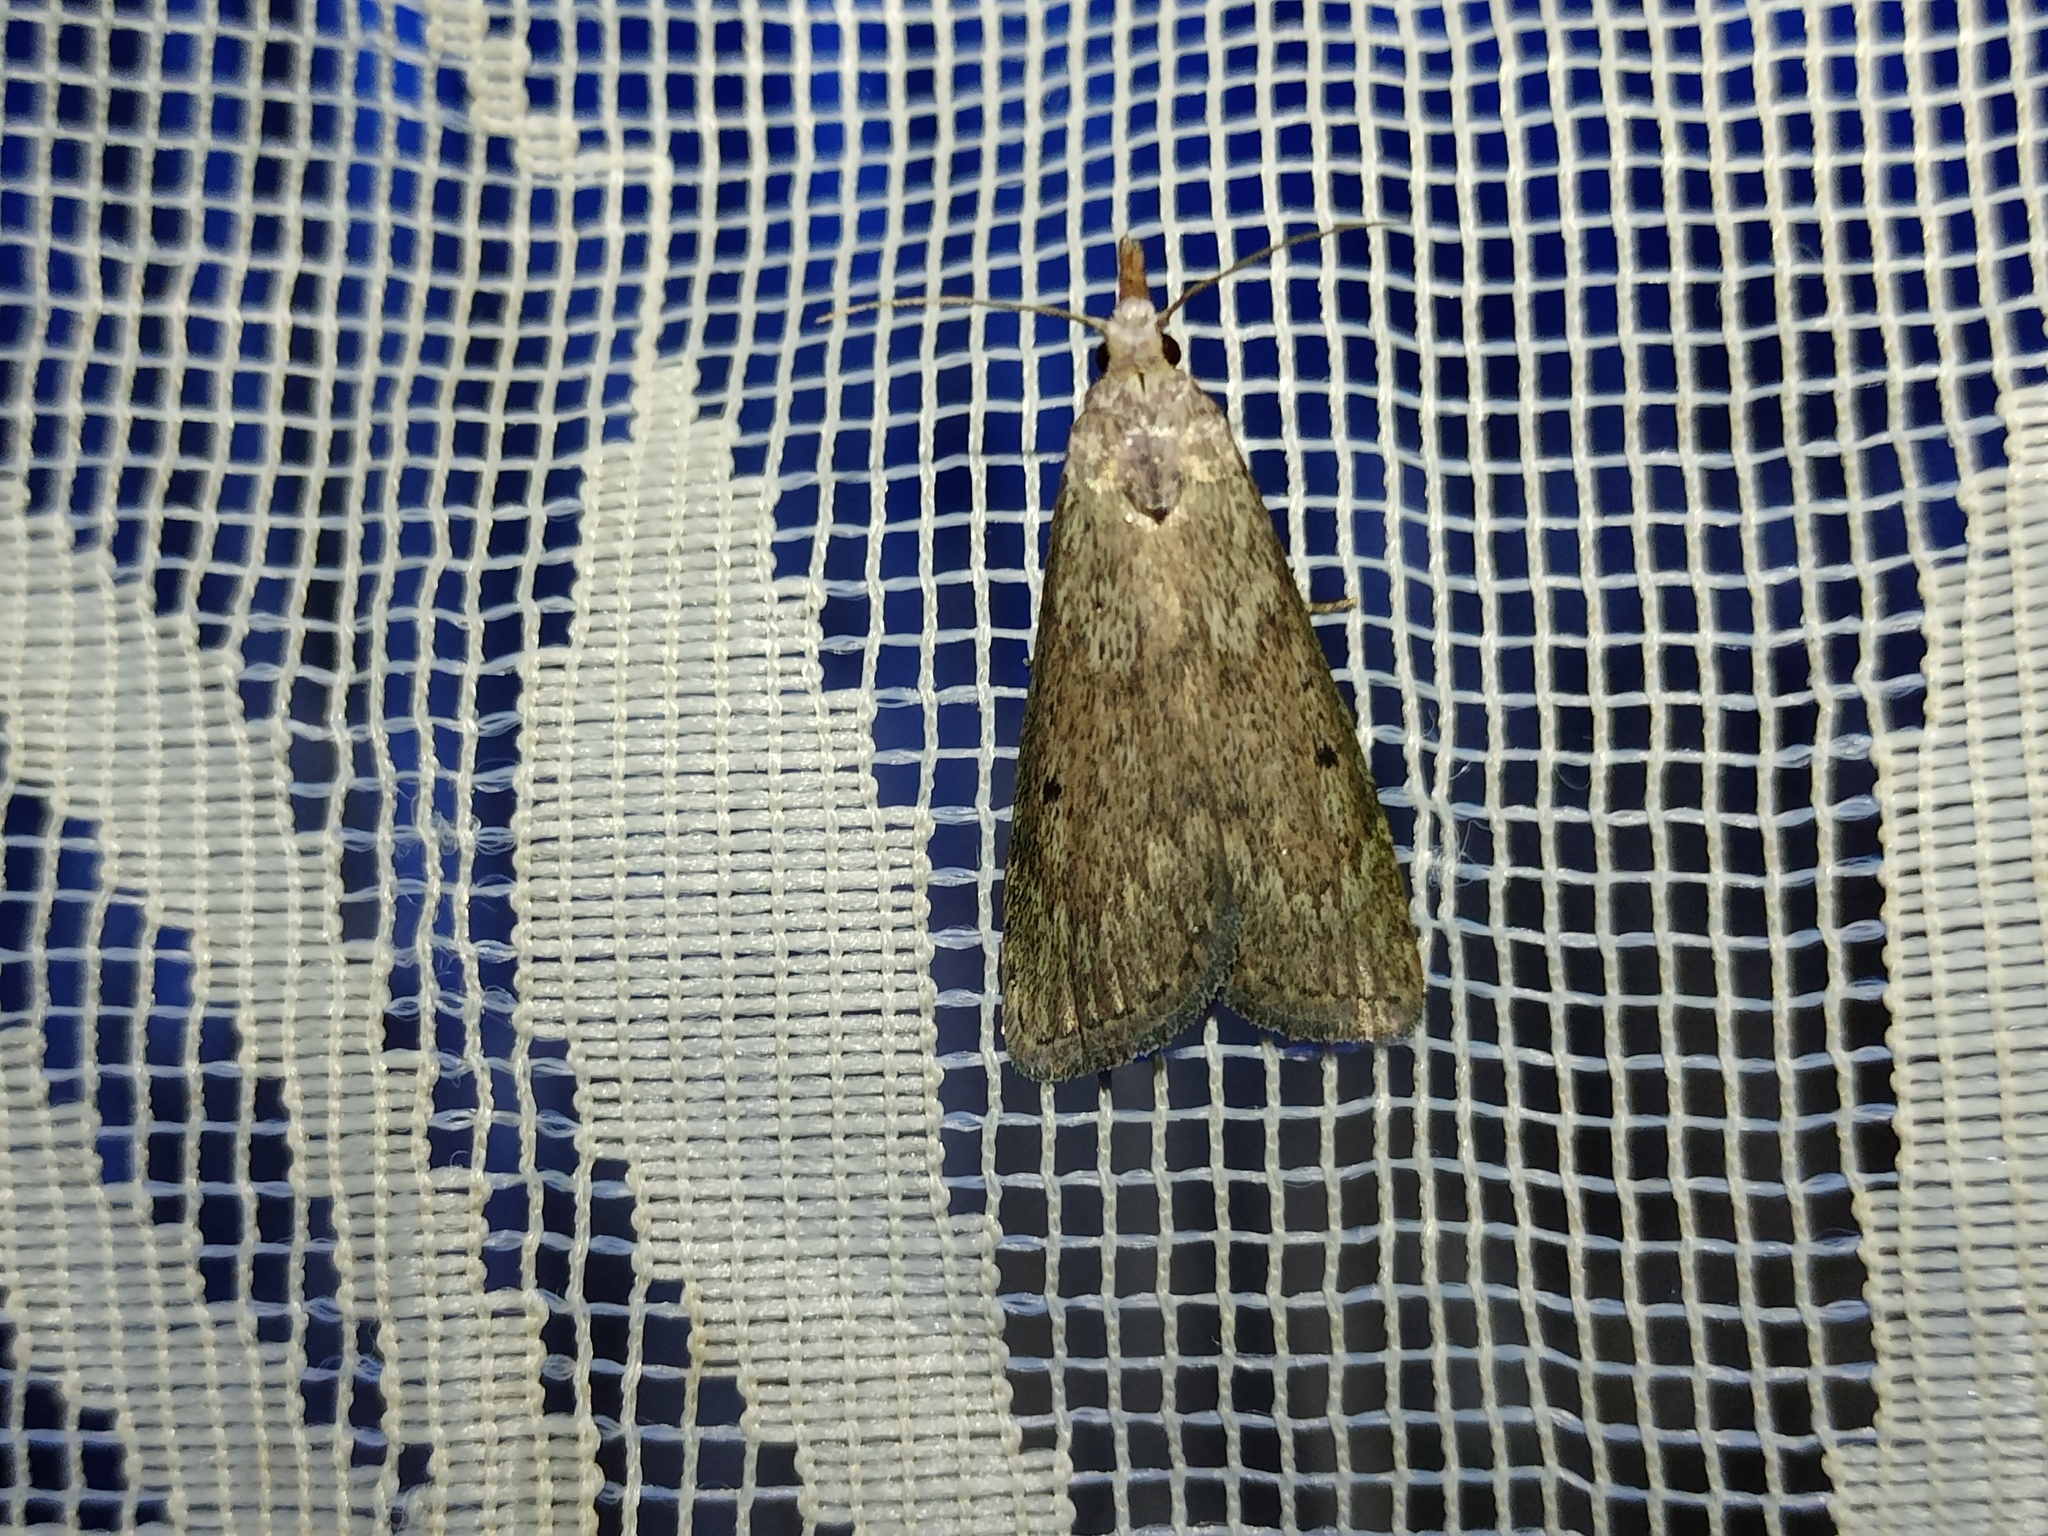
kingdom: Animalia
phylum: Arthropoda
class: Insecta
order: Lepidoptera
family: Pyralidae
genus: Aphomia
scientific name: Aphomia sociella
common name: Bee moth
